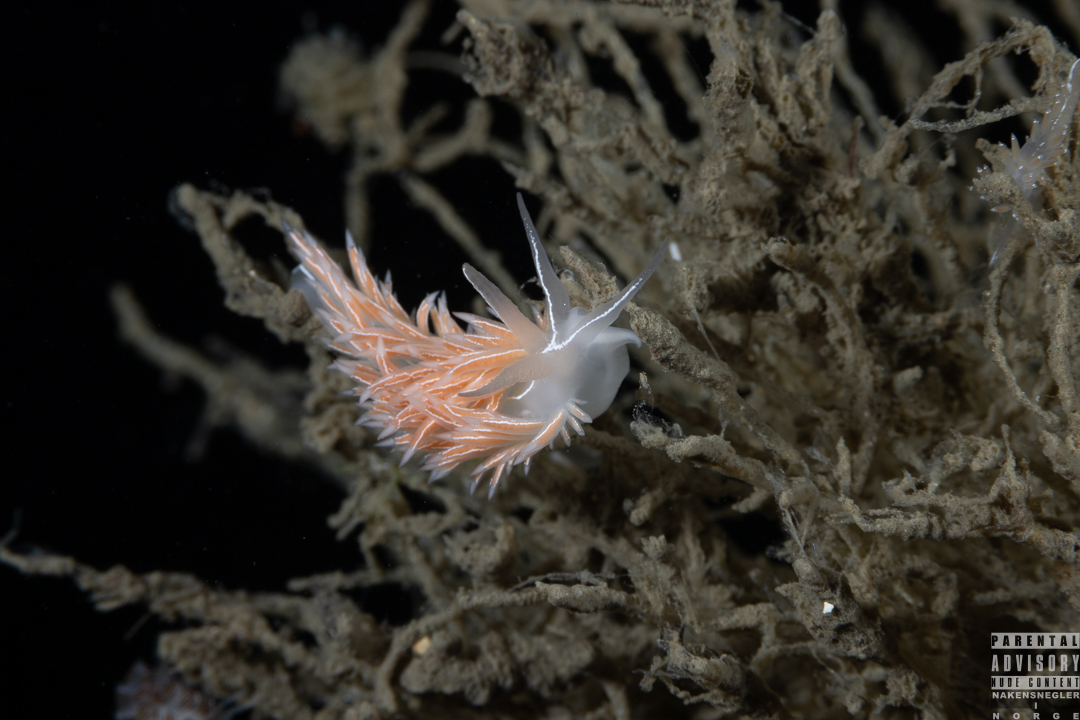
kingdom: Animalia
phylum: Mollusca
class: Gastropoda
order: Nudibranchia
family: Coryphellidae
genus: Coryphella
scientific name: Coryphella chriskaugei
